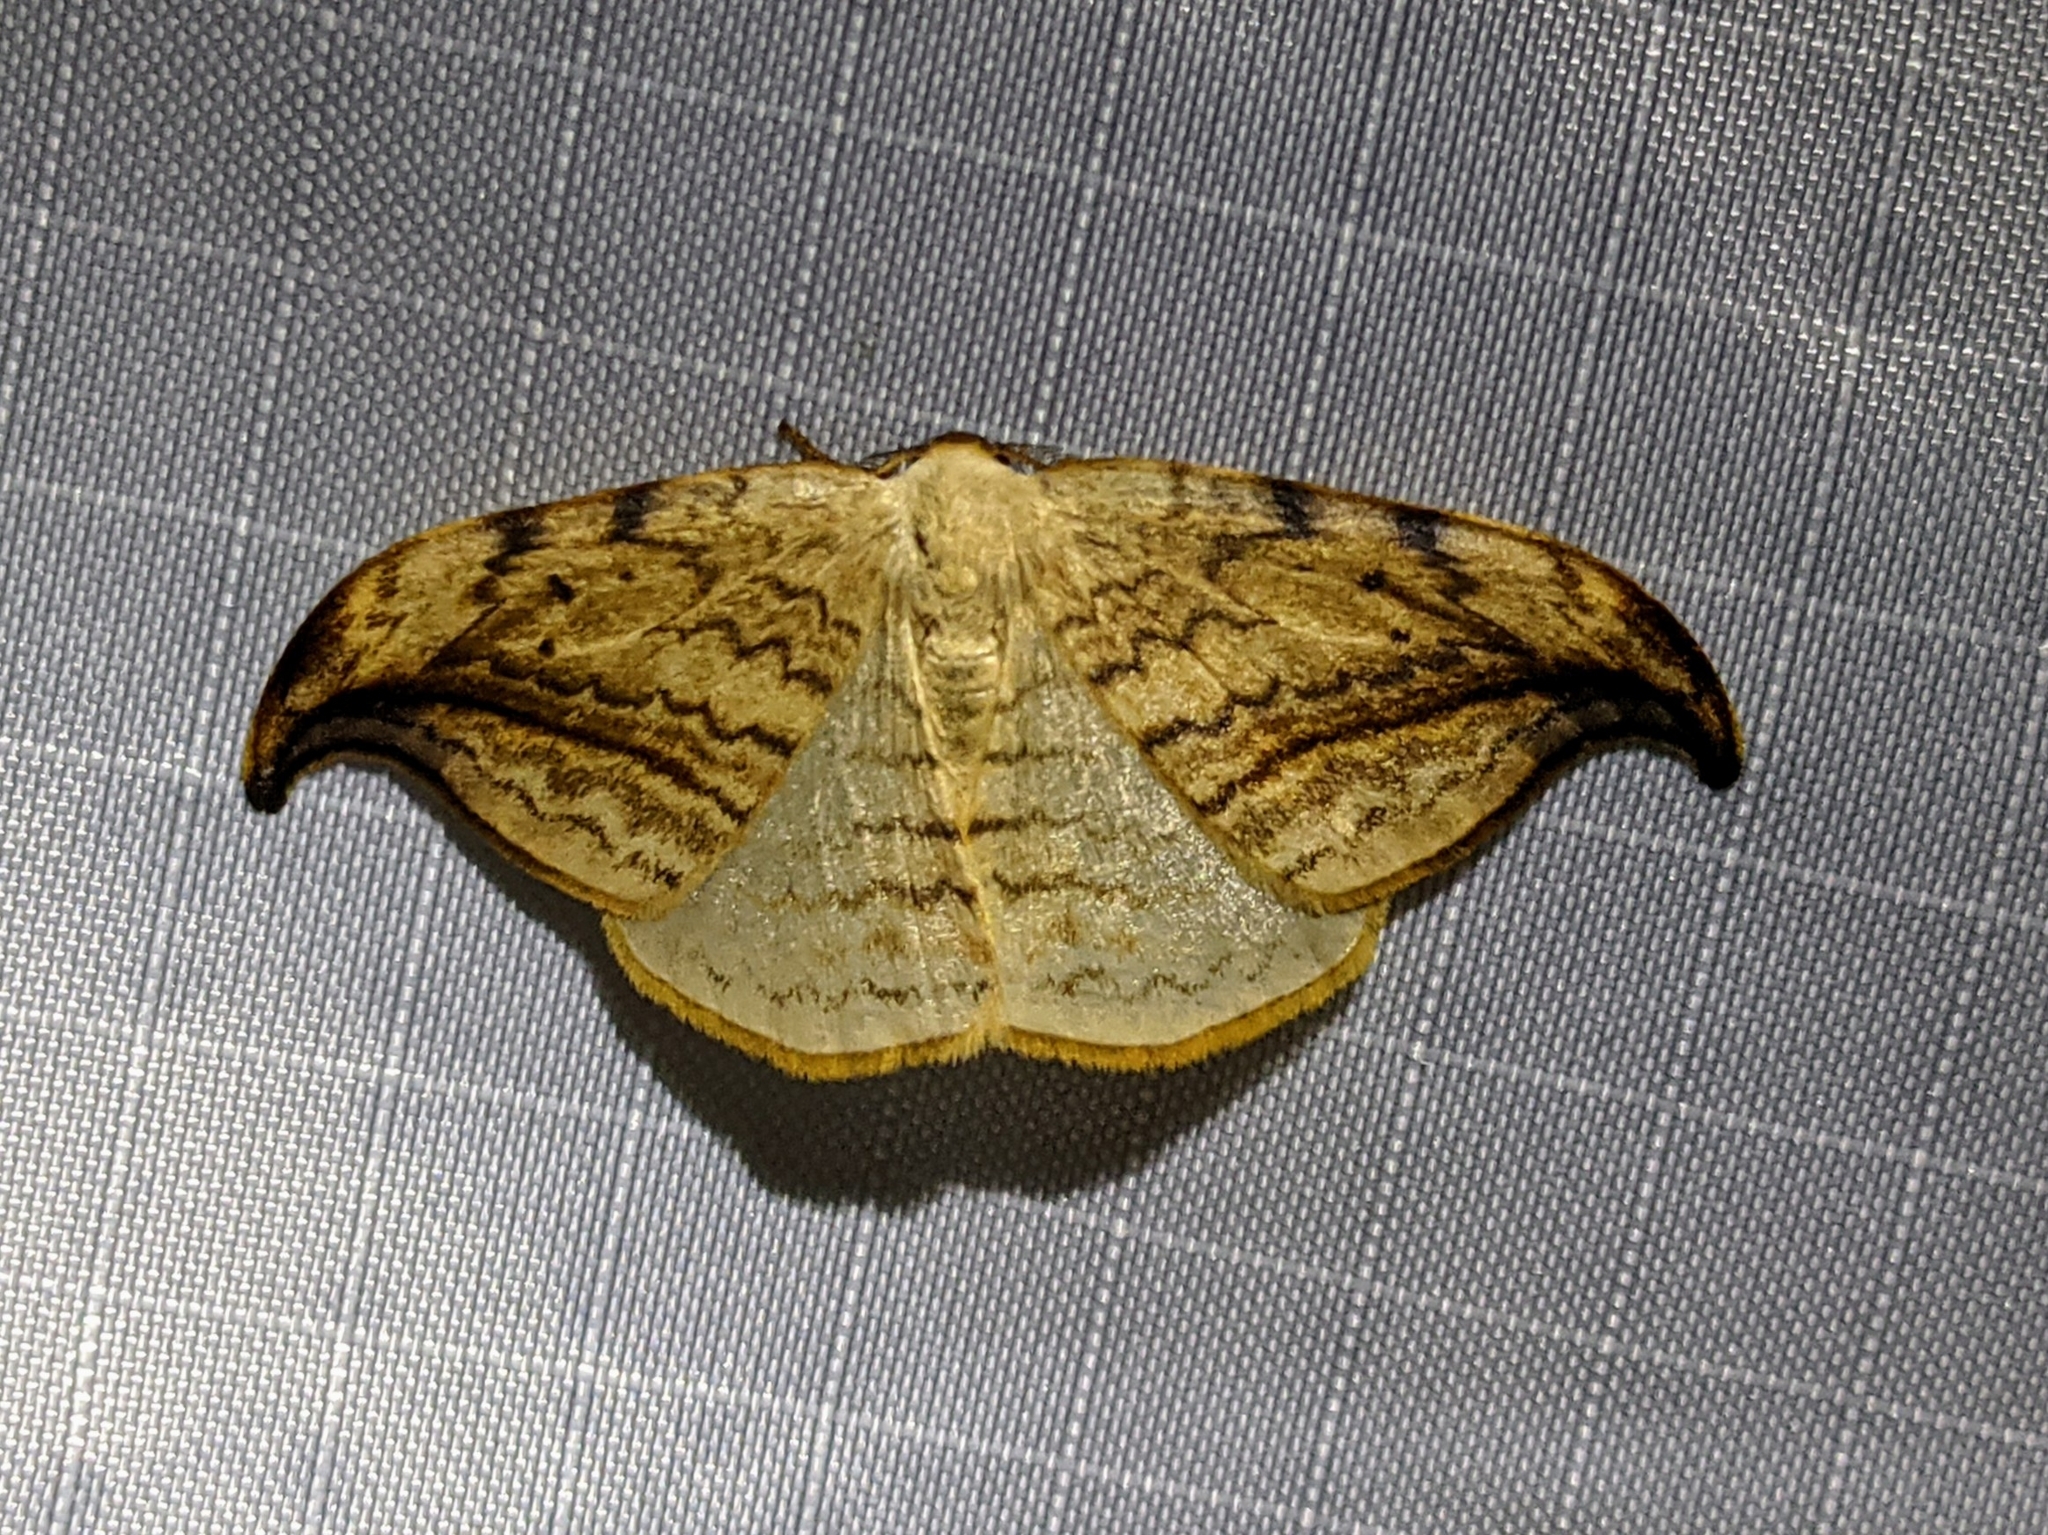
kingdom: Animalia
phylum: Arthropoda
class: Insecta
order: Lepidoptera
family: Drepanidae
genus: Drepana
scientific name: Drepana arcuata
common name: Arched hooktip moth
